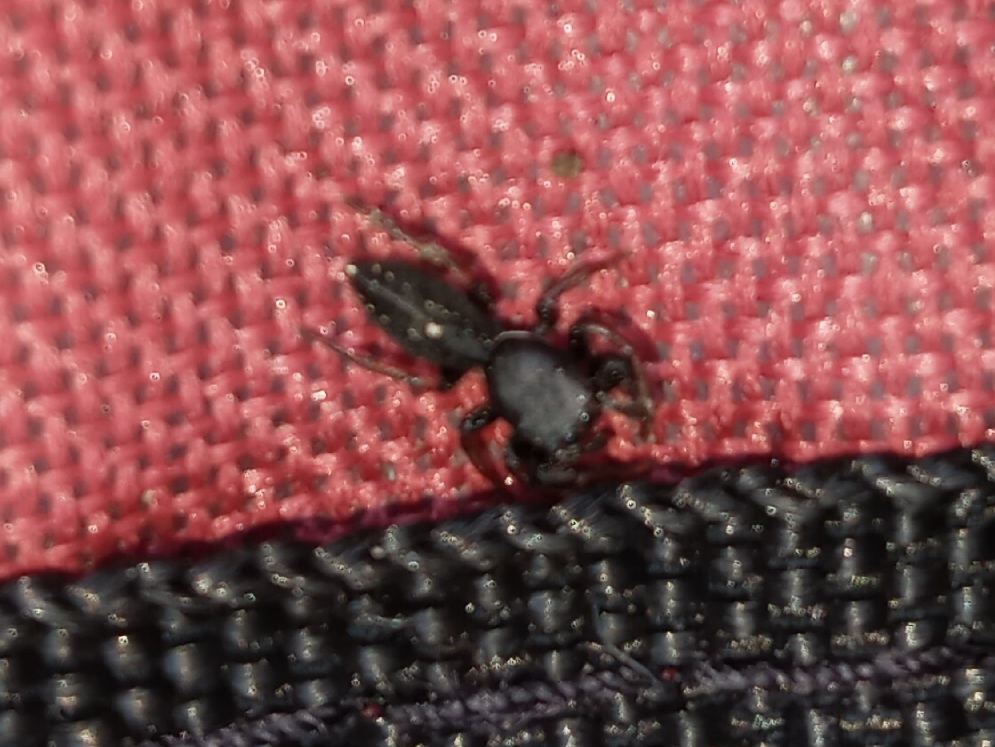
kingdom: Animalia
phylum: Arthropoda
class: Arachnida
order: Araneae
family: Salticidae
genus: Metacyrba
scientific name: Metacyrba taeniola
